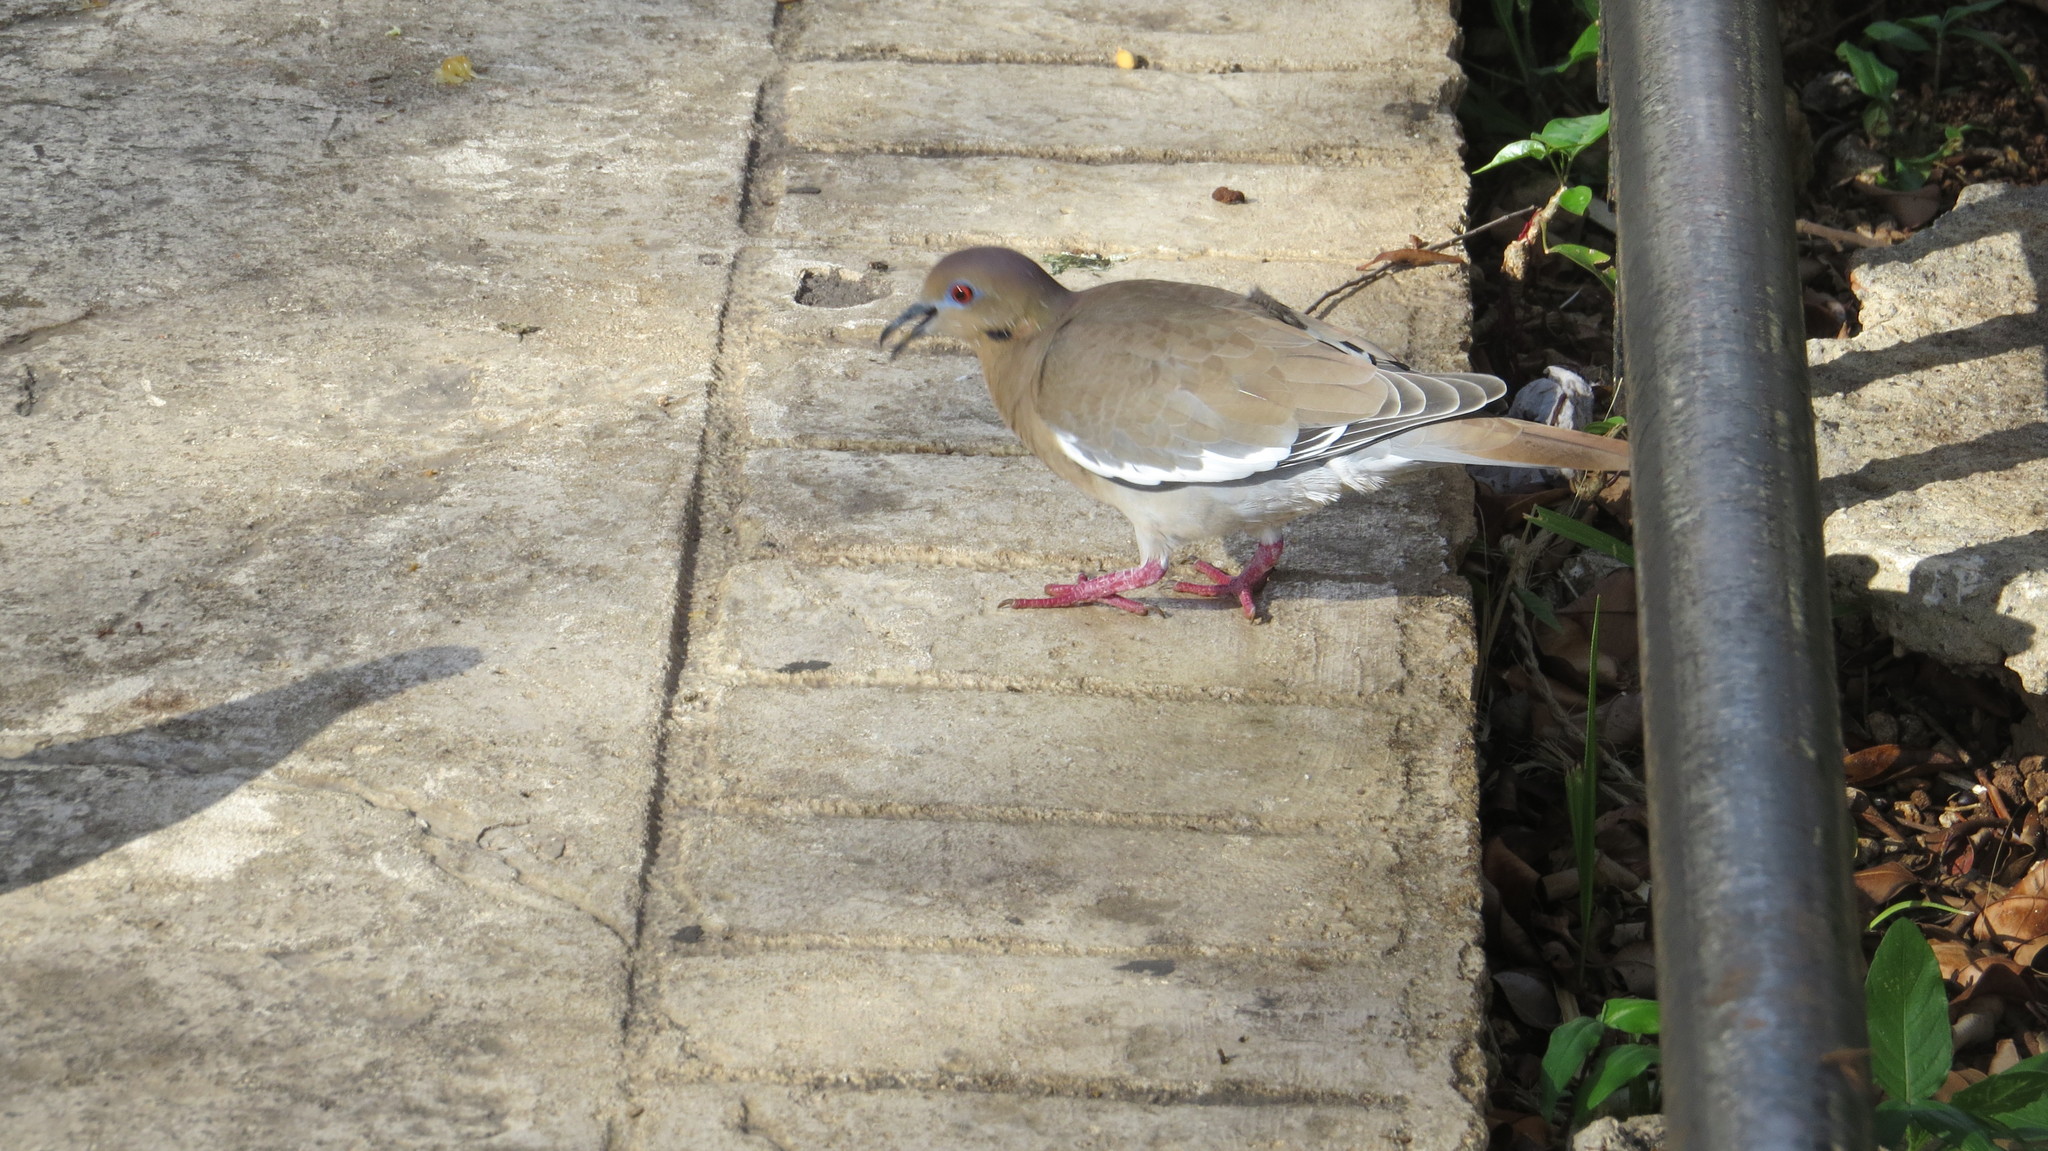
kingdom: Animalia
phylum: Chordata
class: Aves
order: Columbiformes
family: Columbidae
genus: Zenaida
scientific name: Zenaida asiatica
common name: White-winged dove
